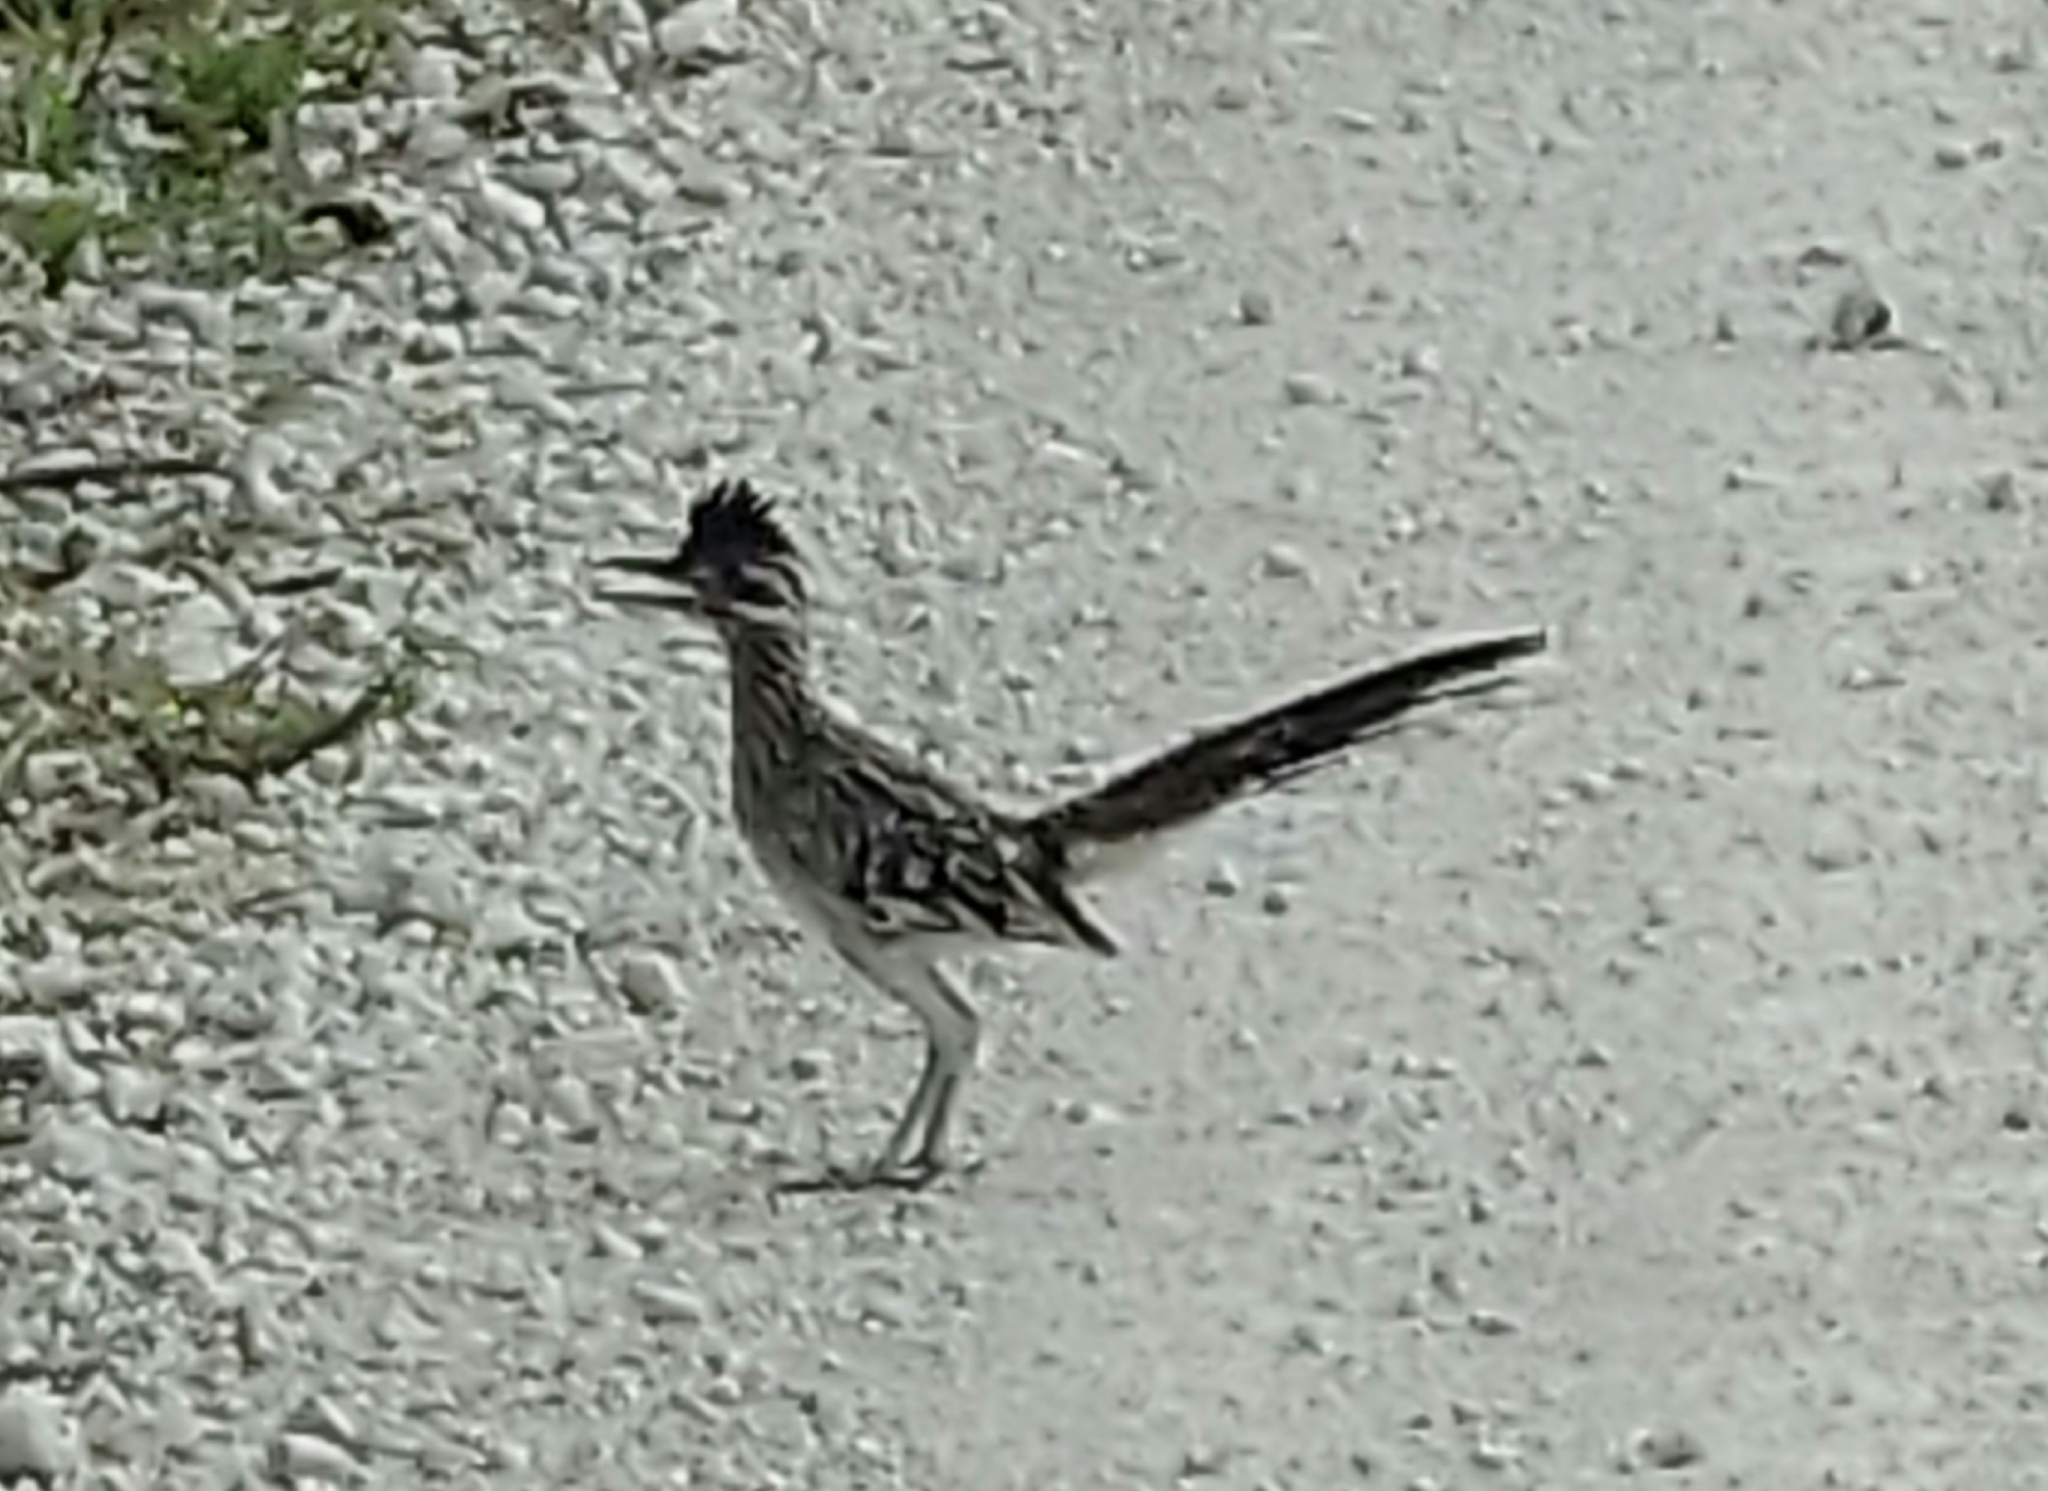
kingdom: Animalia
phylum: Chordata
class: Aves
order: Cuculiformes
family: Cuculidae
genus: Geococcyx
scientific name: Geococcyx californianus
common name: Greater roadrunner
